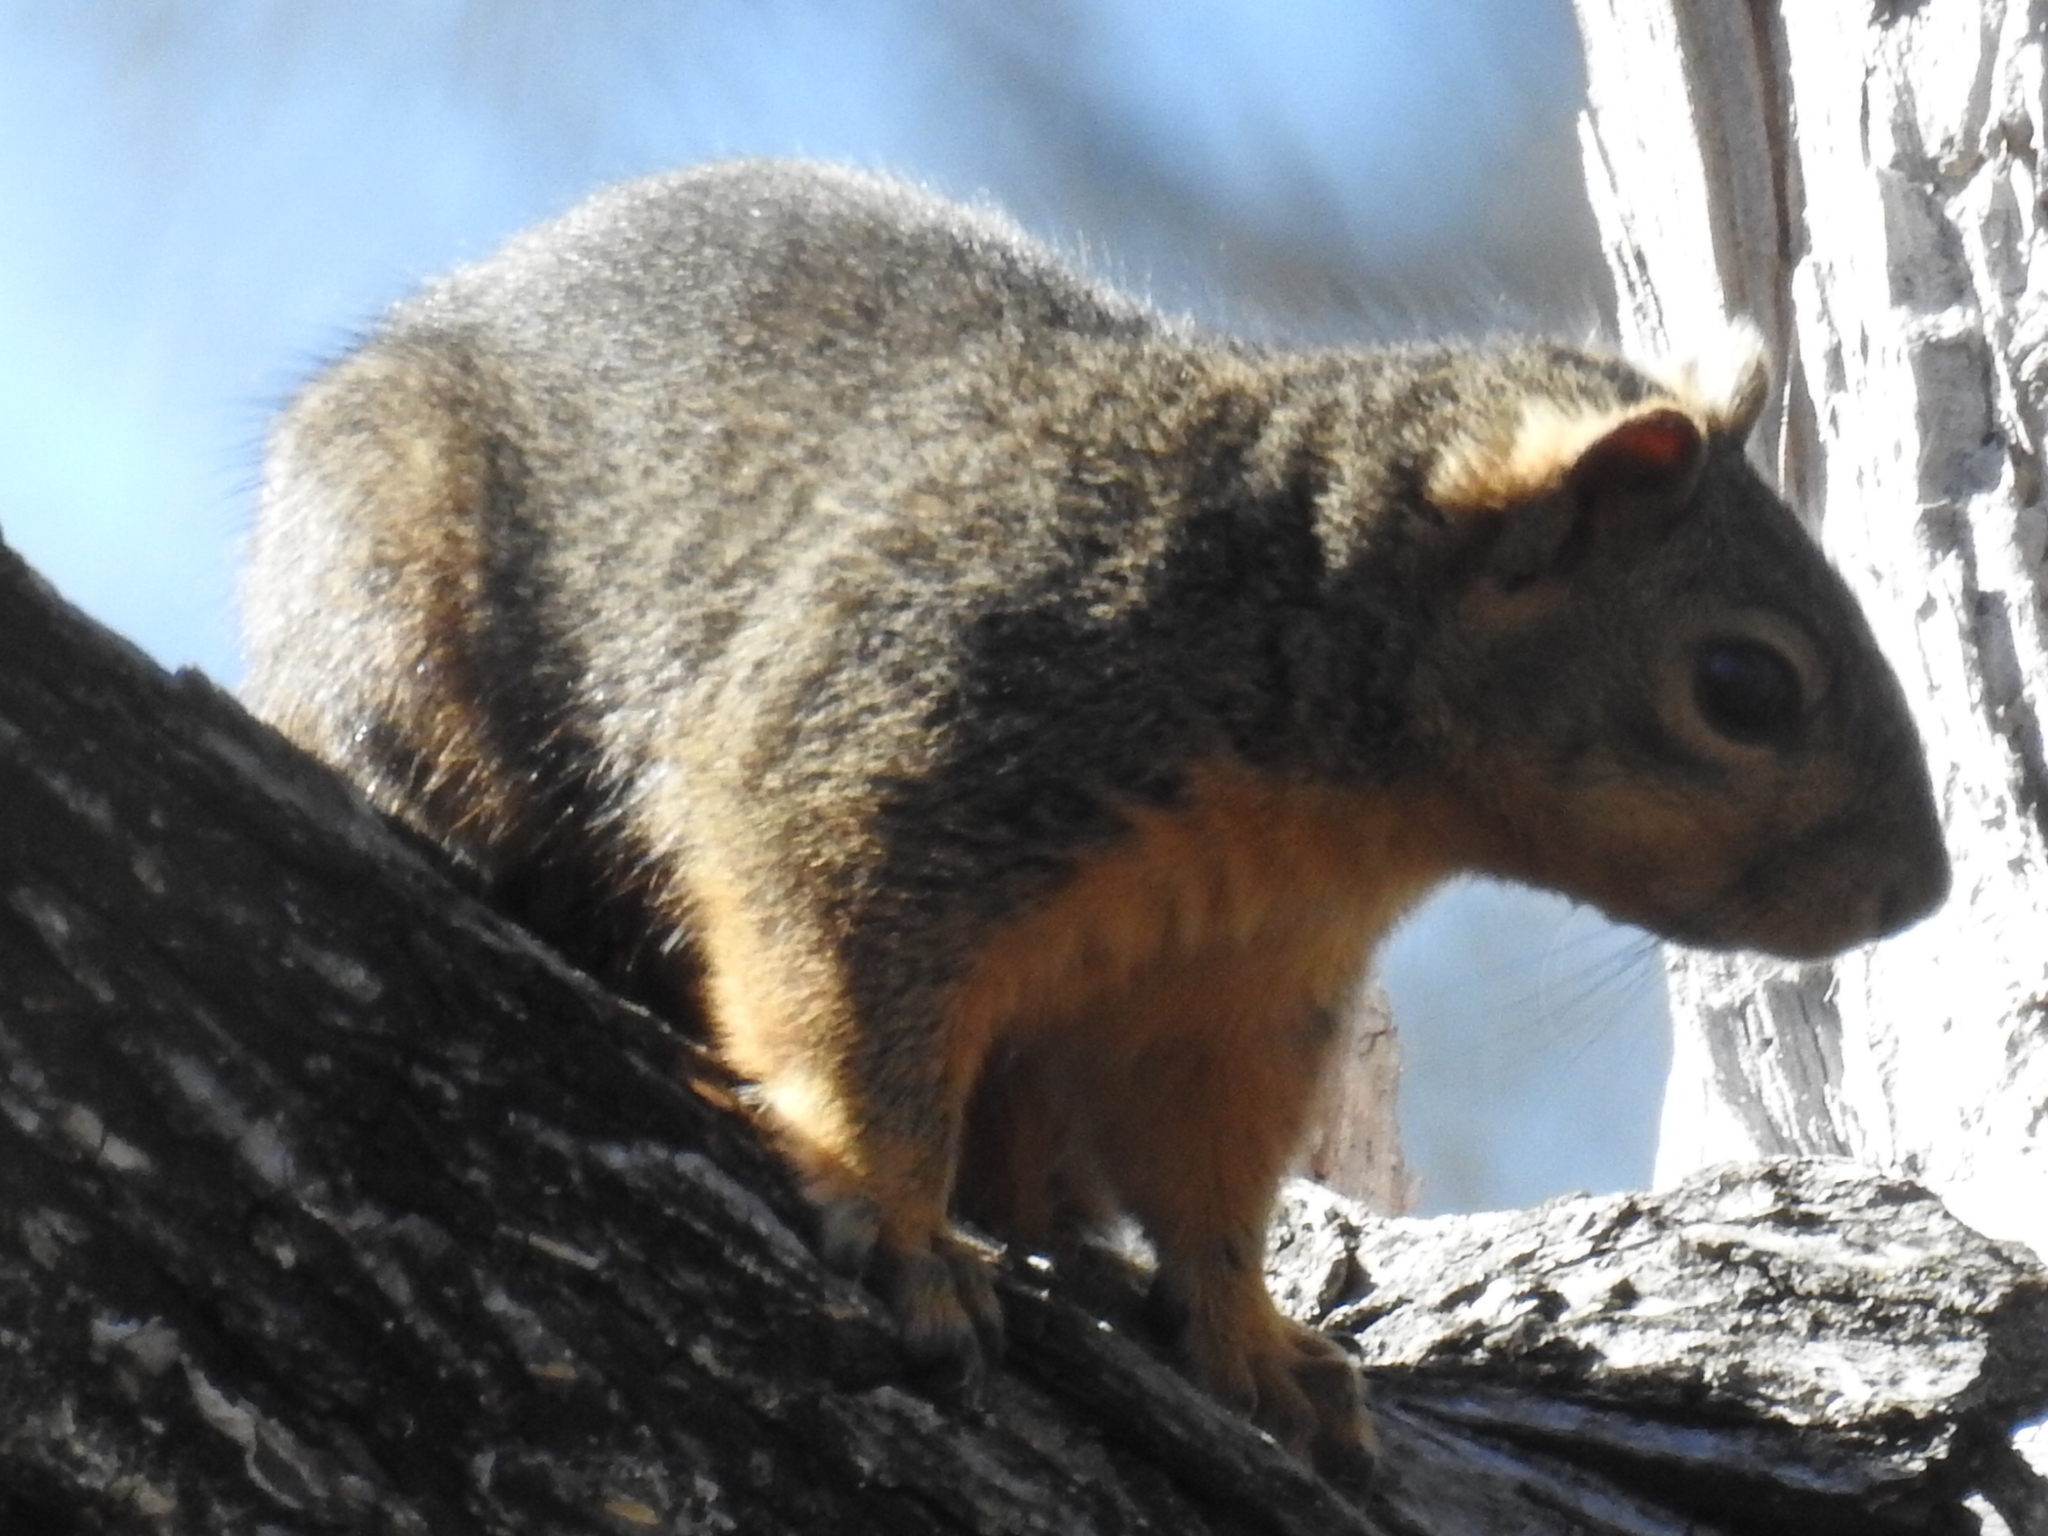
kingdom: Animalia
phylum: Chordata
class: Mammalia
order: Rodentia
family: Sciuridae
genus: Sciurus
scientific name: Sciurus niger
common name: Fox squirrel
